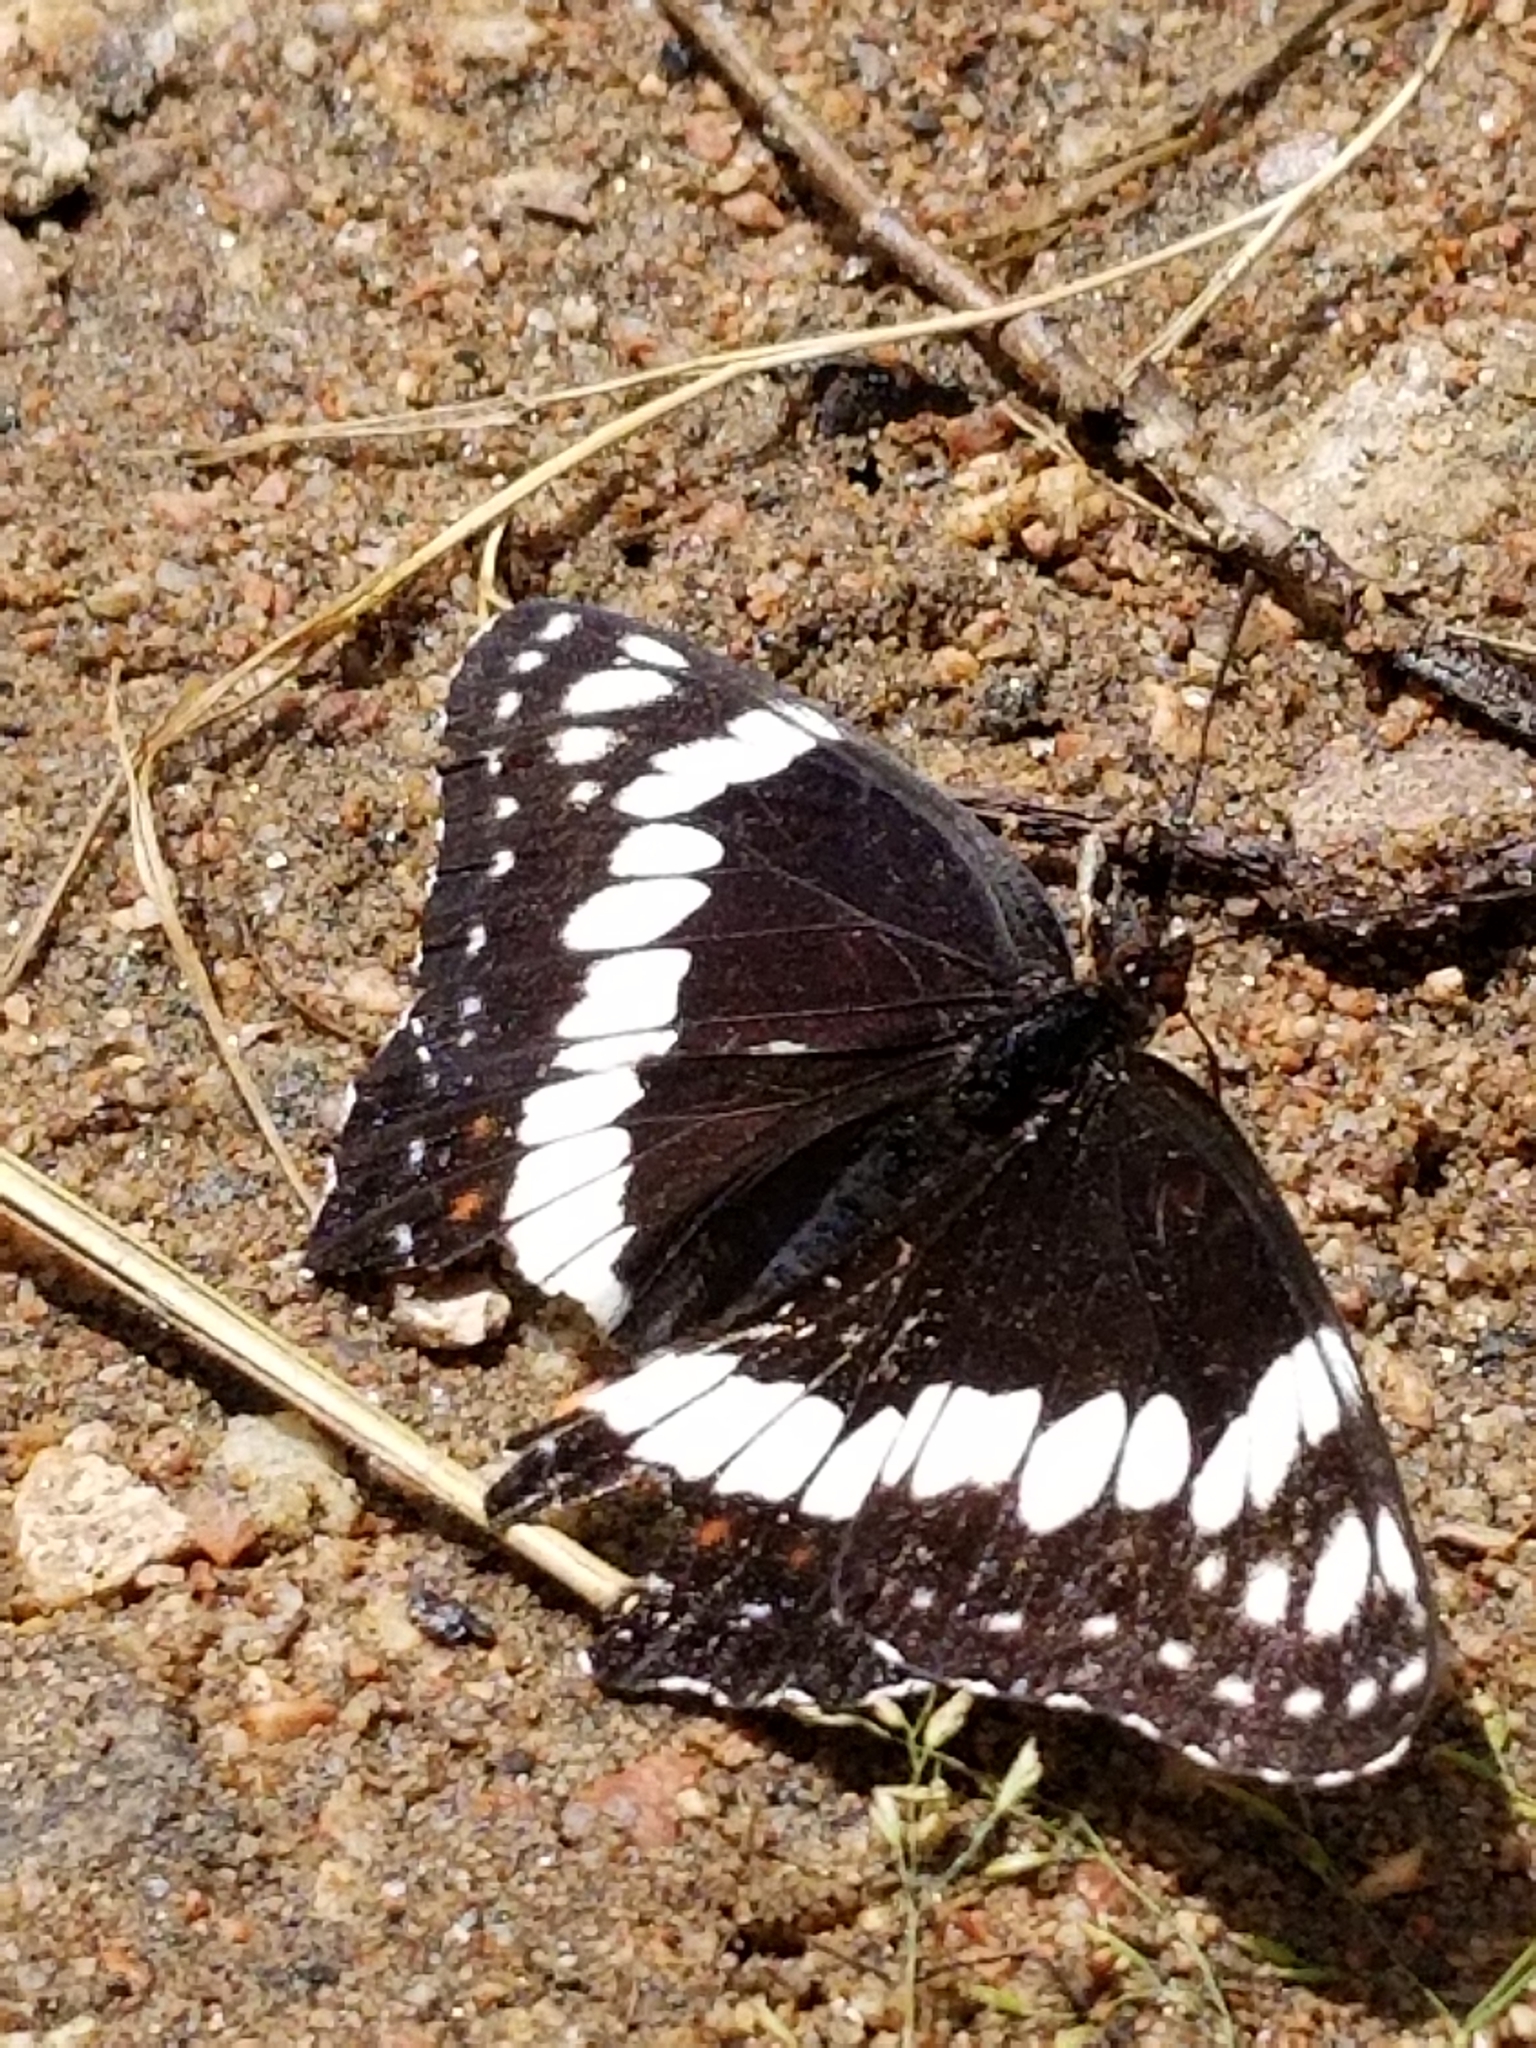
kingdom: Animalia
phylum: Arthropoda
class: Insecta
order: Lepidoptera
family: Nymphalidae
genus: Limenitis
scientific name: Limenitis weidemeyerii
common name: Weidemeyer's admiral
